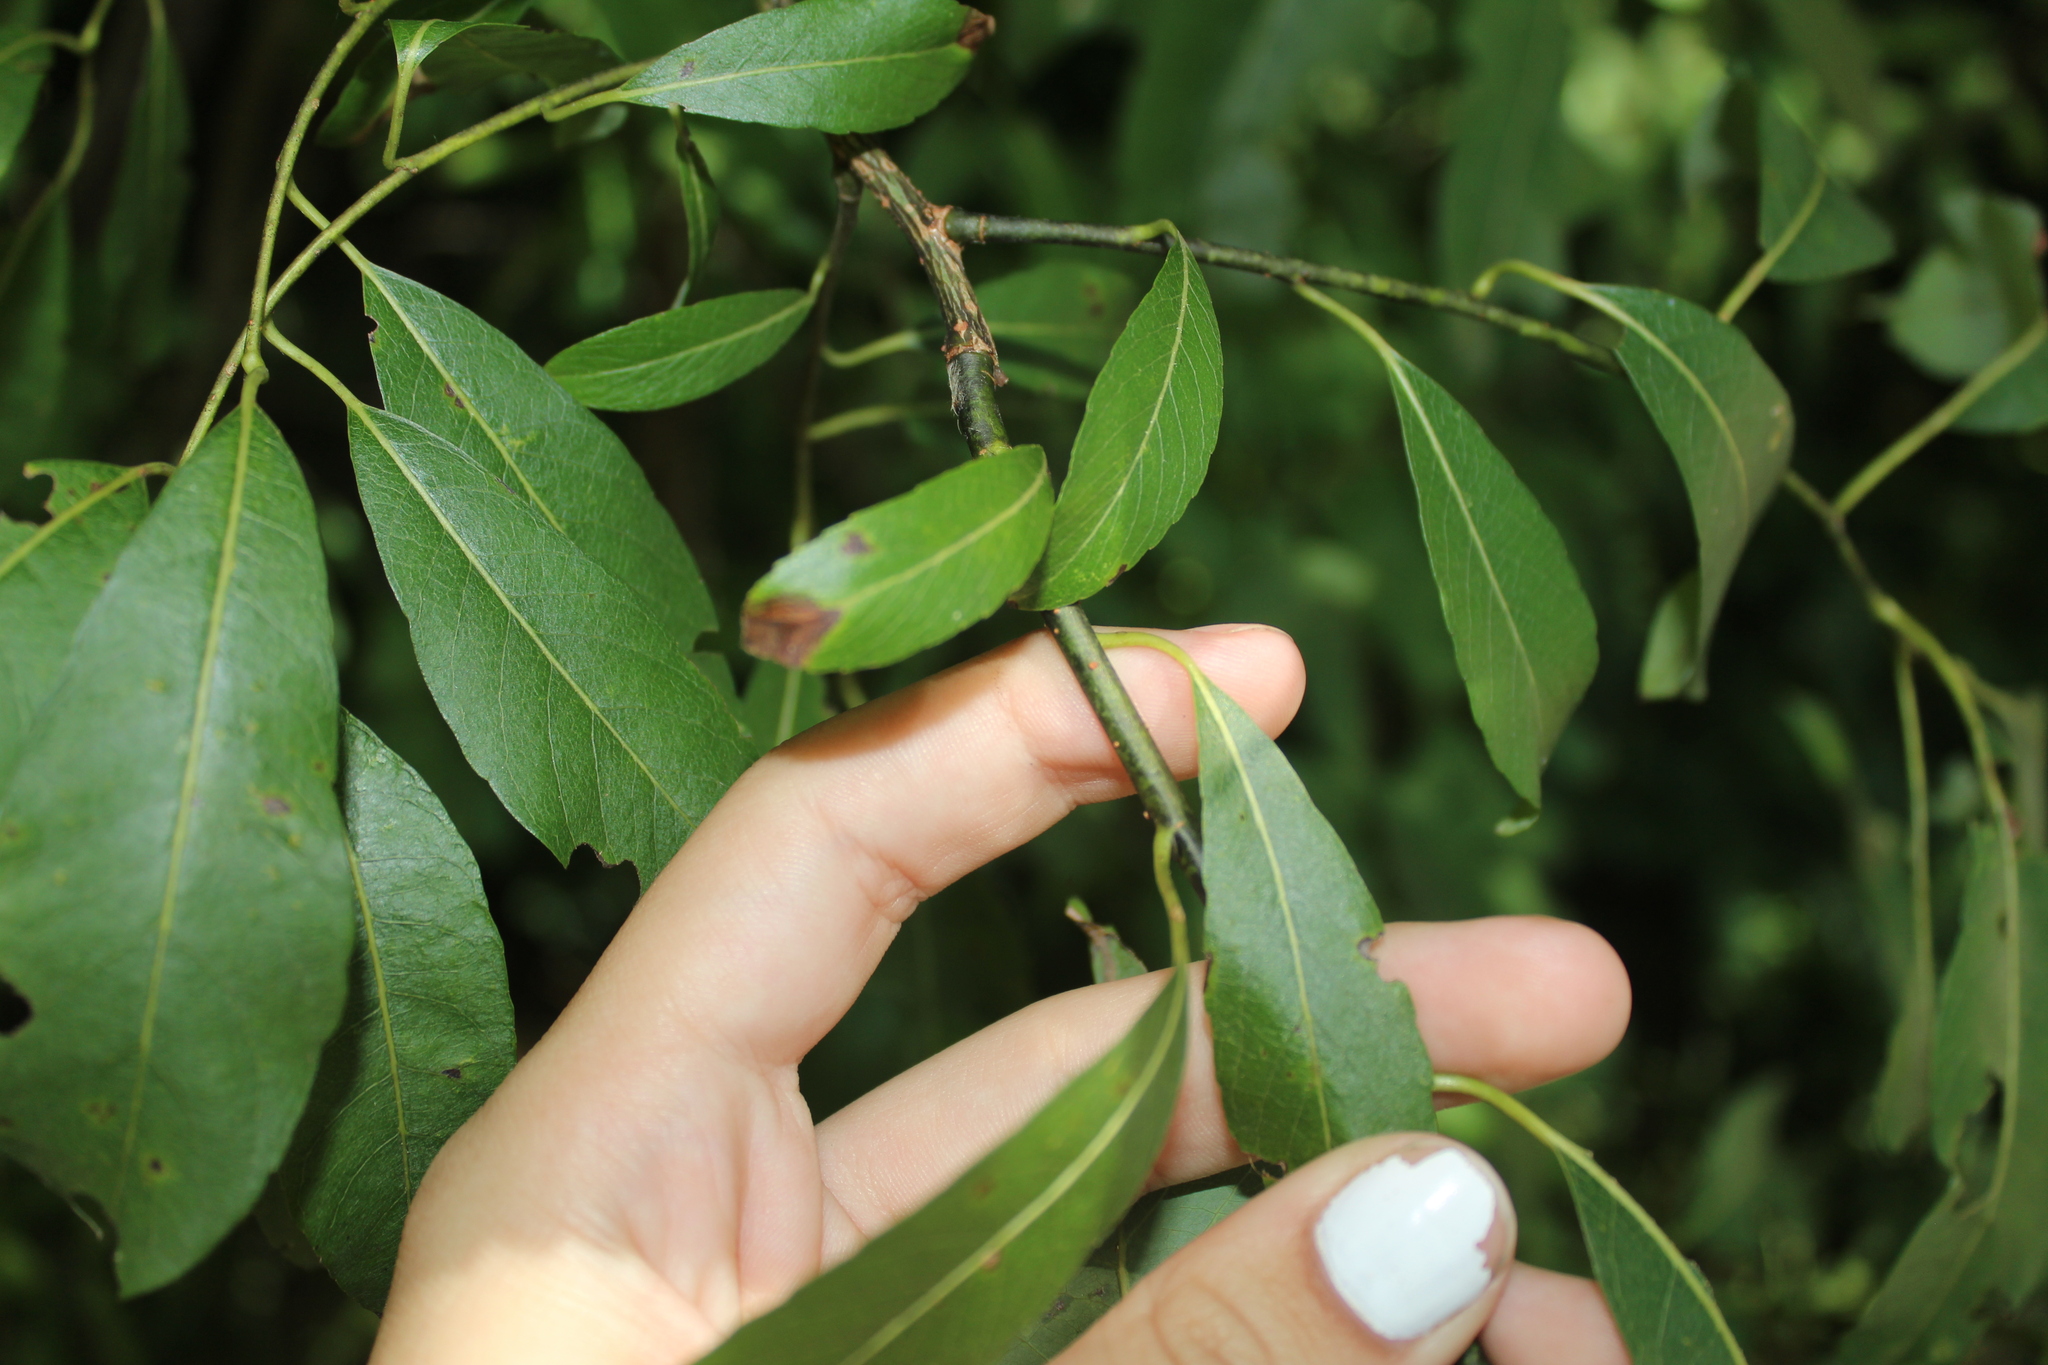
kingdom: Plantae
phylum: Tracheophyta
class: Magnoliopsida
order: Malpighiales
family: Salicaceae
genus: Salix
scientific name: Salix discolor
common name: Glaucous willow
